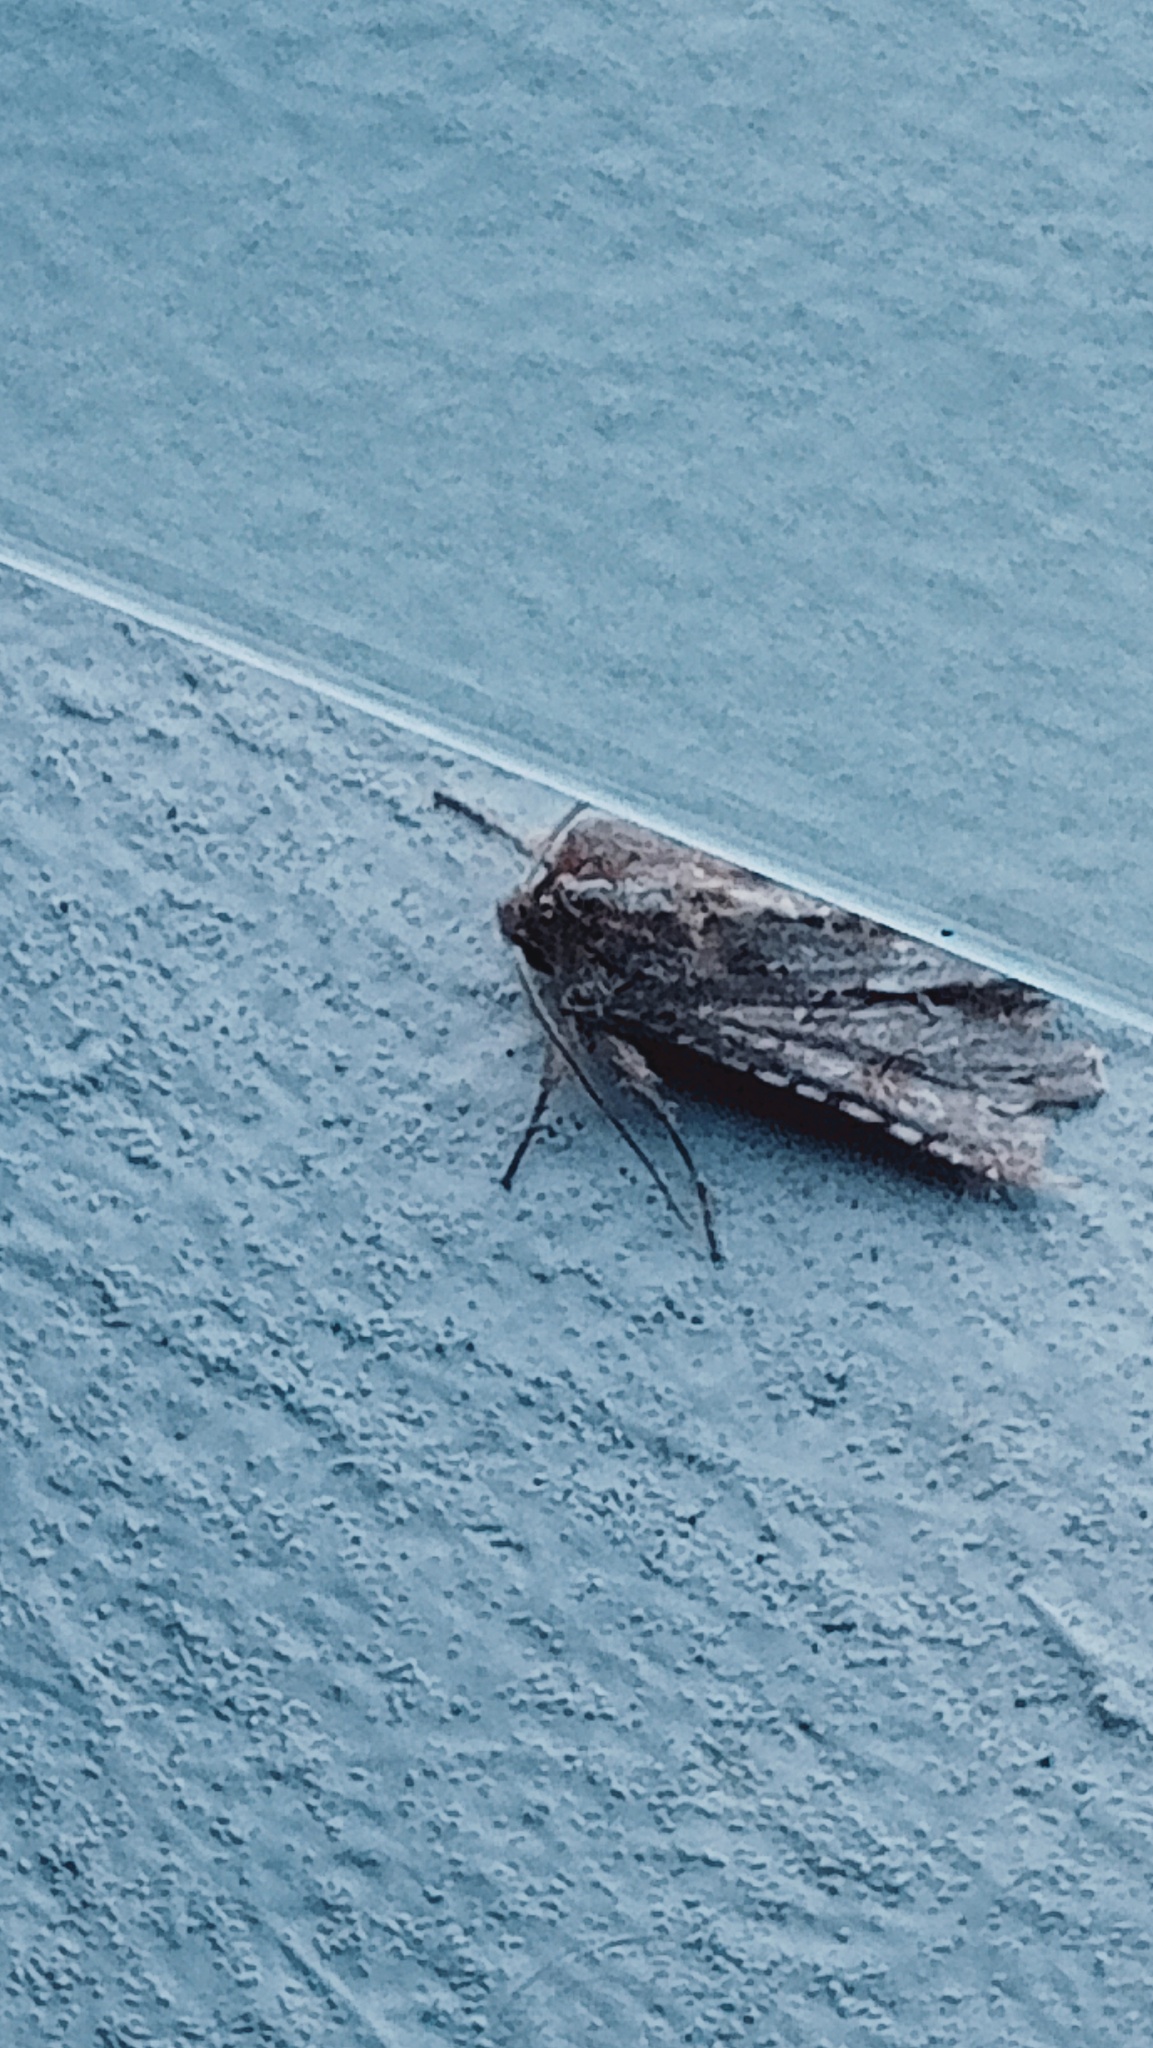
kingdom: Animalia
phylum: Arthropoda
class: Insecta
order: Lepidoptera
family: Noctuidae
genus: Ichneutica
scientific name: Ichneutica
